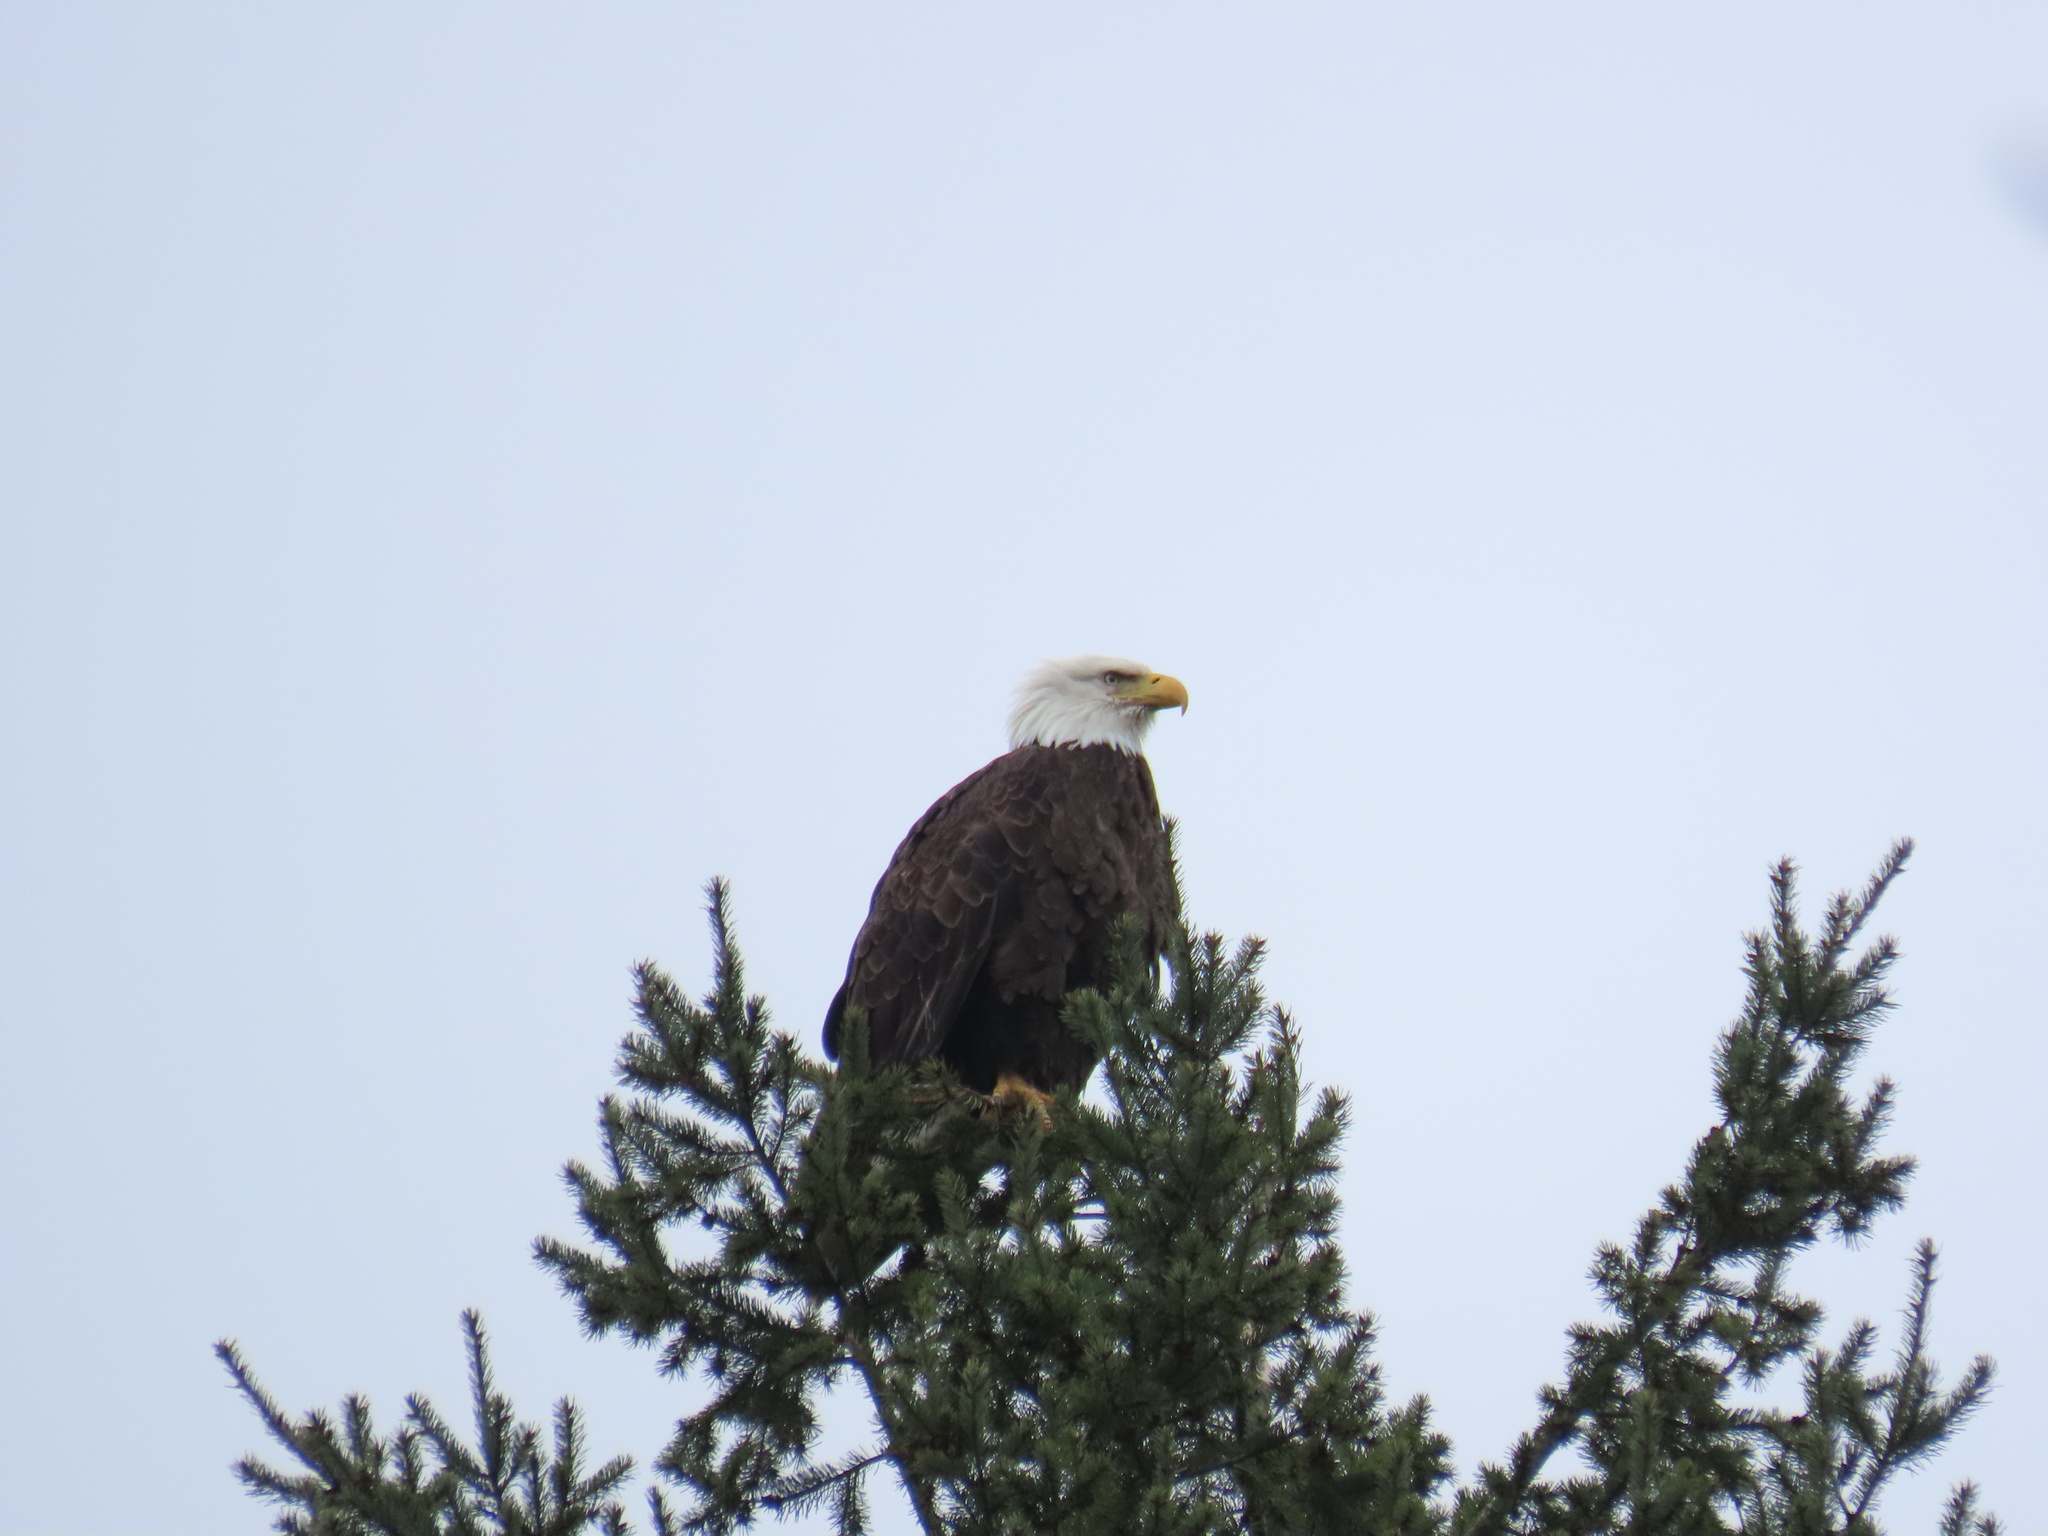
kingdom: Animalia
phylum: Chordata
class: Aves
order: Accipitriformes
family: Accipitridae
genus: Haliaeetus
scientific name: Haliaeetus leucocephalus
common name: Bald eagle
